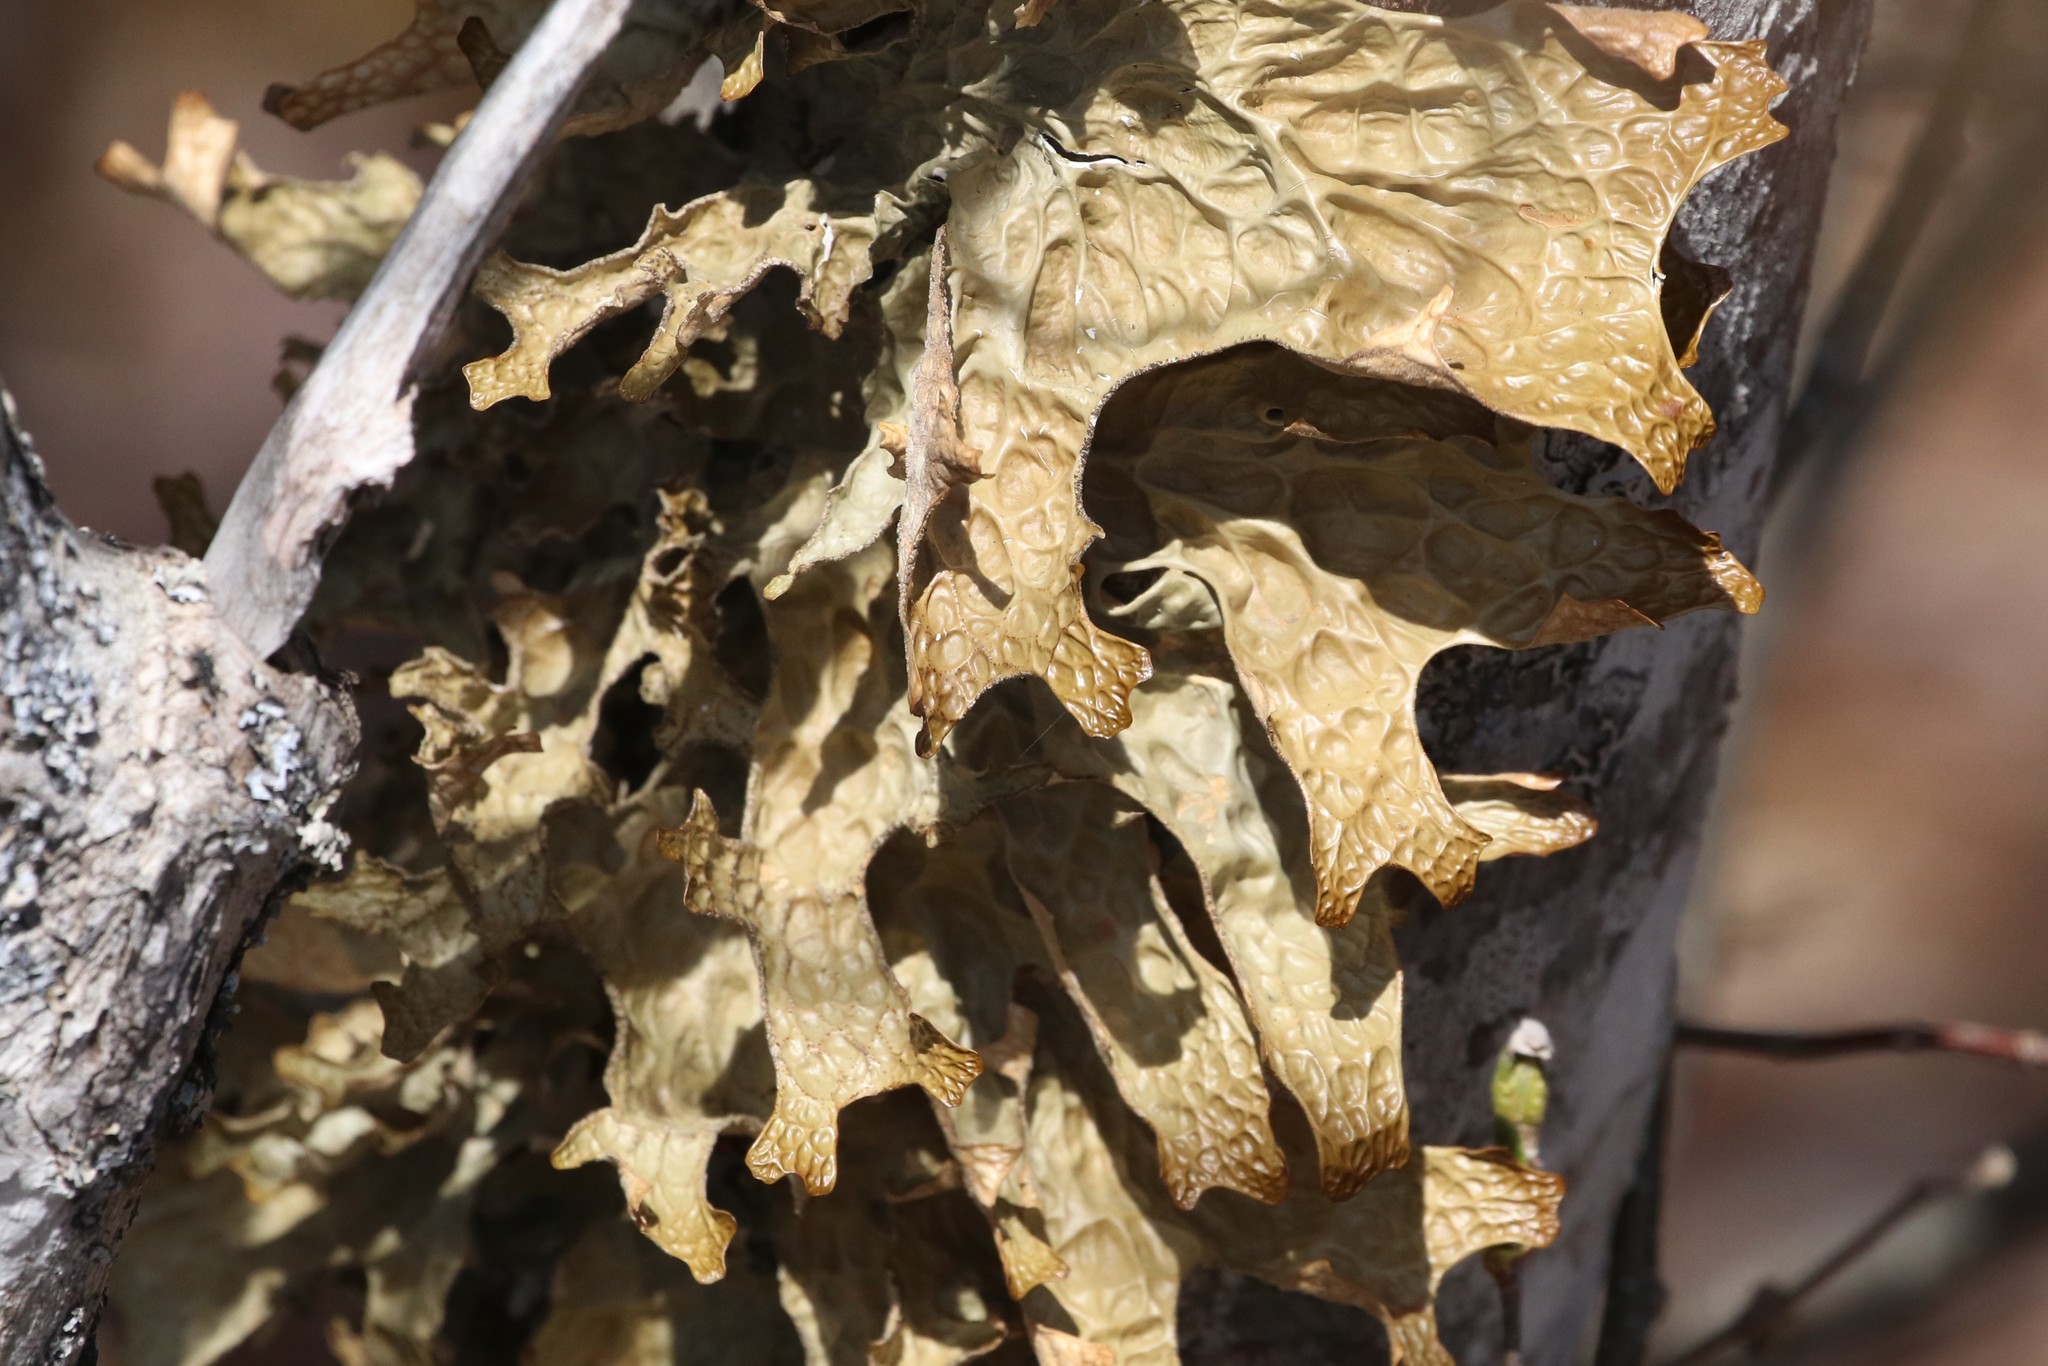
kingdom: Fungi
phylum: Ascomycota
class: Lecanoromycetes
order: Peltigerales
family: Lobariaceae
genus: Lobaria
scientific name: Lobaria pulmonaria
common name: Lungwort
